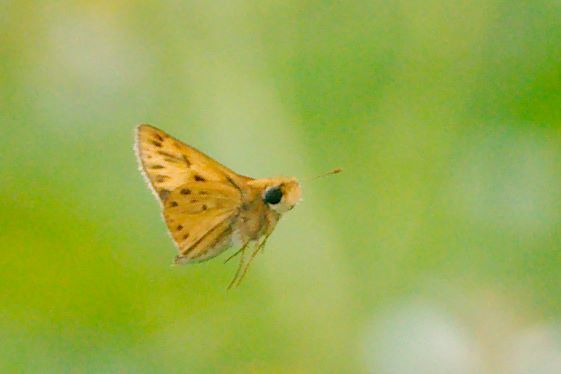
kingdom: Animalia
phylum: Arthropoda
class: Insecta
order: Lepidoptera
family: Hesperiidae
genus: Hylephila
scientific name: Hylephila phyleus
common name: Fiery skipper
